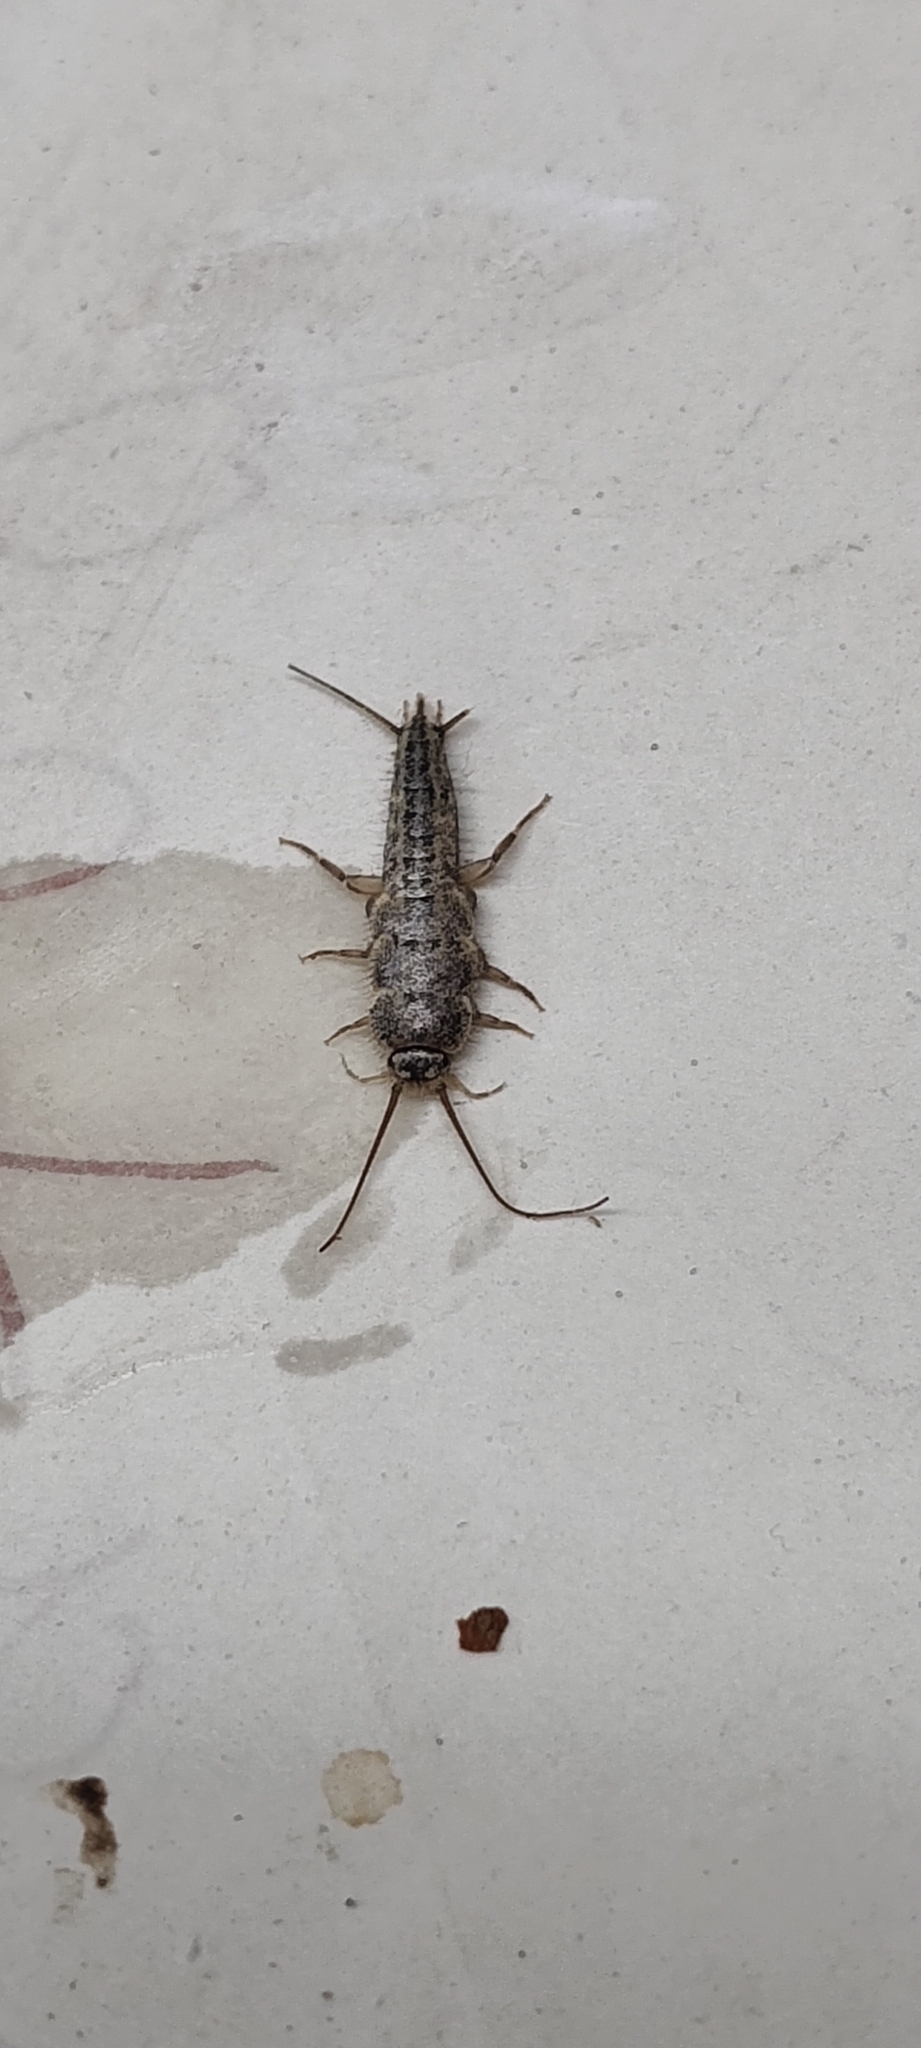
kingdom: Animalia
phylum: Arthropoda
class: Insecta
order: Zygentoma
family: Lepismatidae
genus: Ctenolepisma
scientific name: Ctenolepisma lineata
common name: Four-lined silverfish
